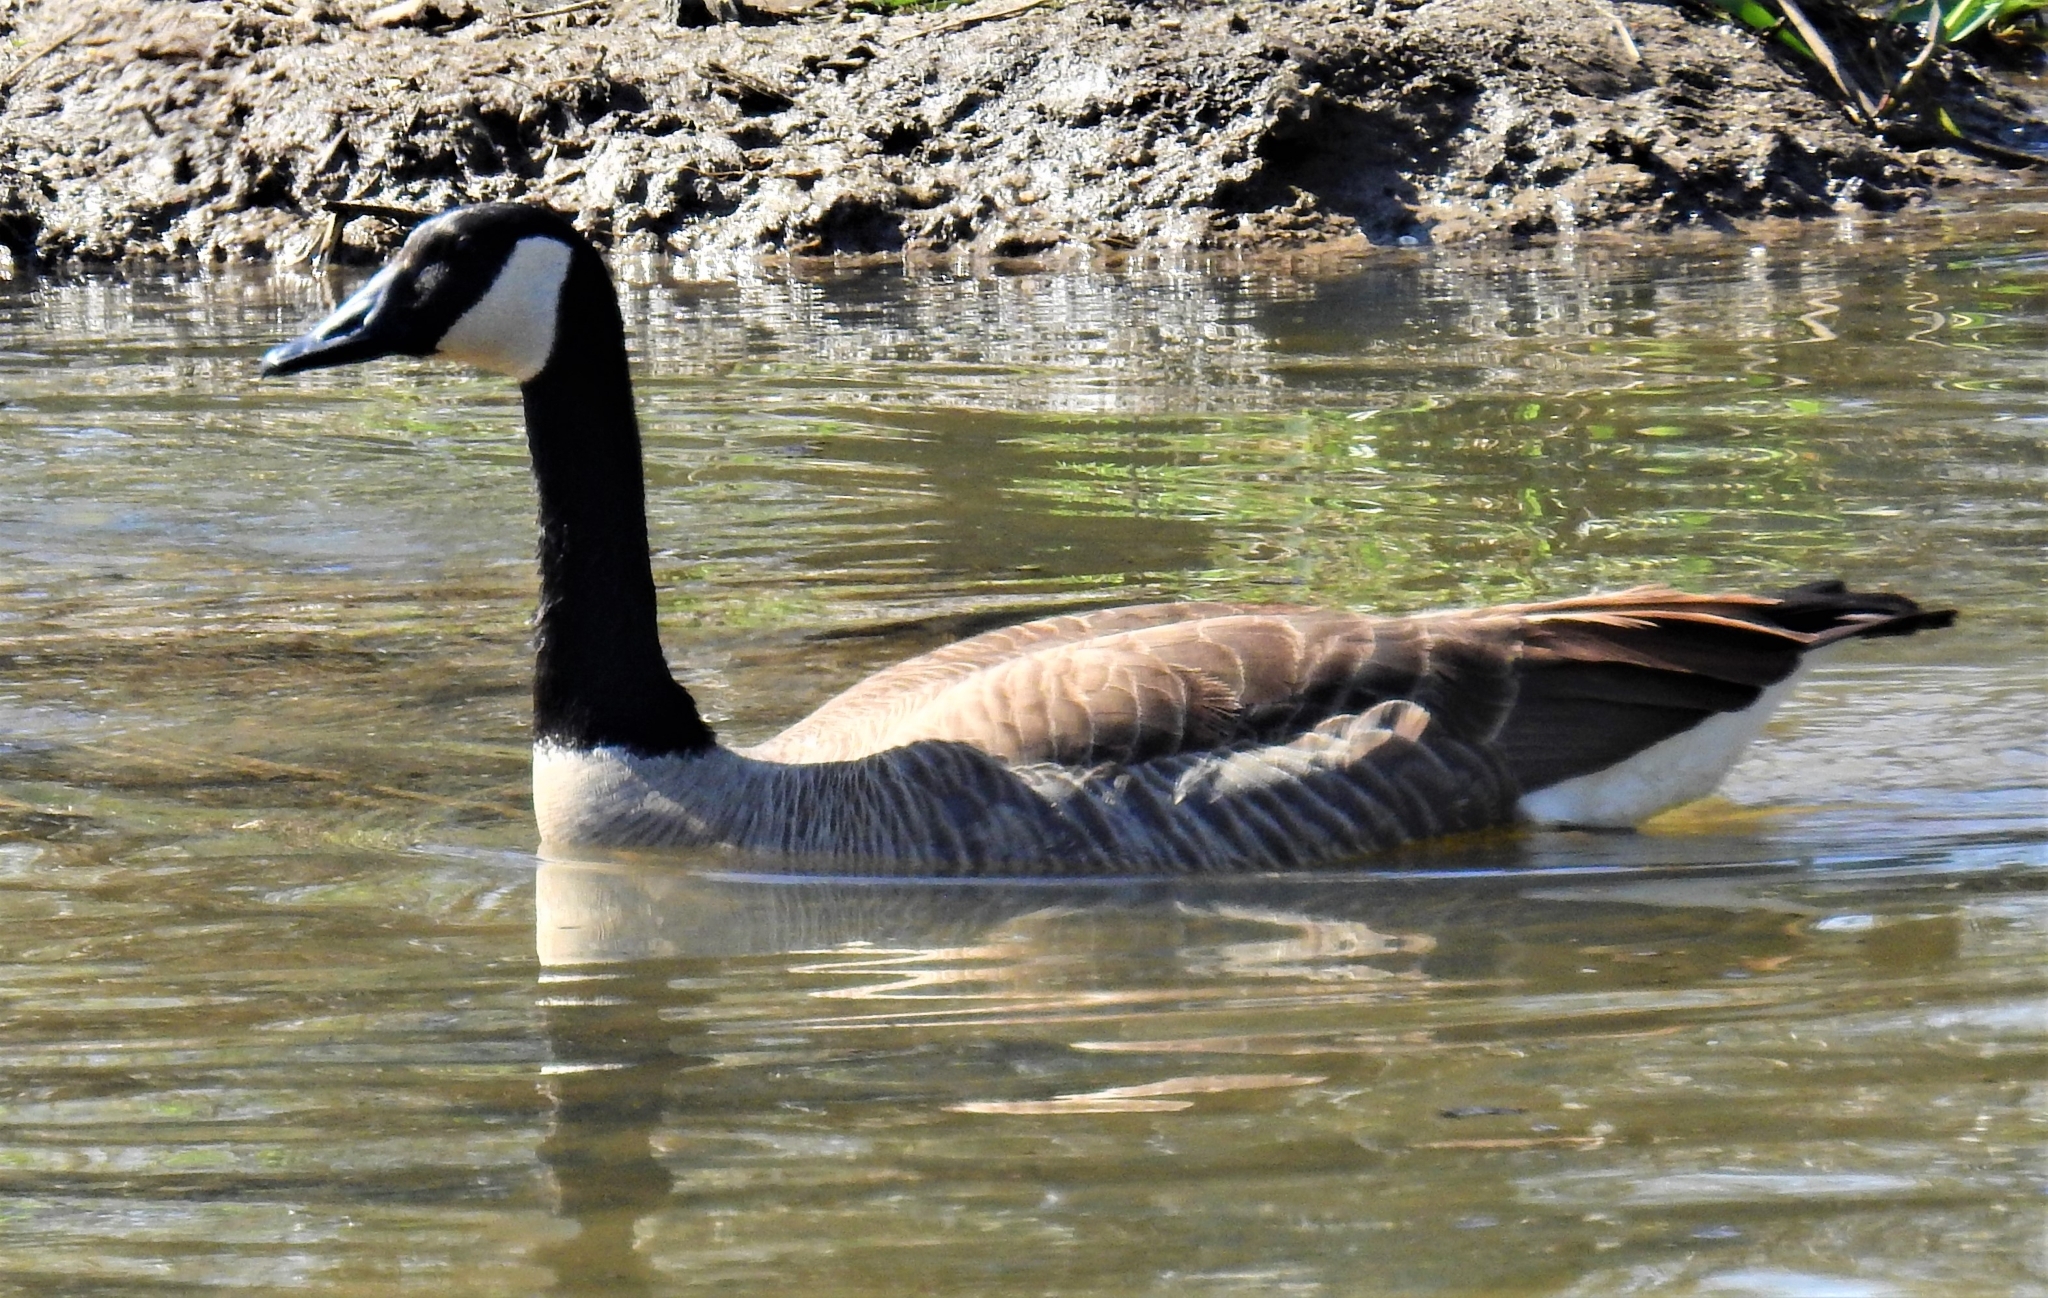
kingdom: Animalia
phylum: Chordata
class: Aves
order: Anseriformes
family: Anatidae
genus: Branta
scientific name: Branta canadensis
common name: Canada goose
